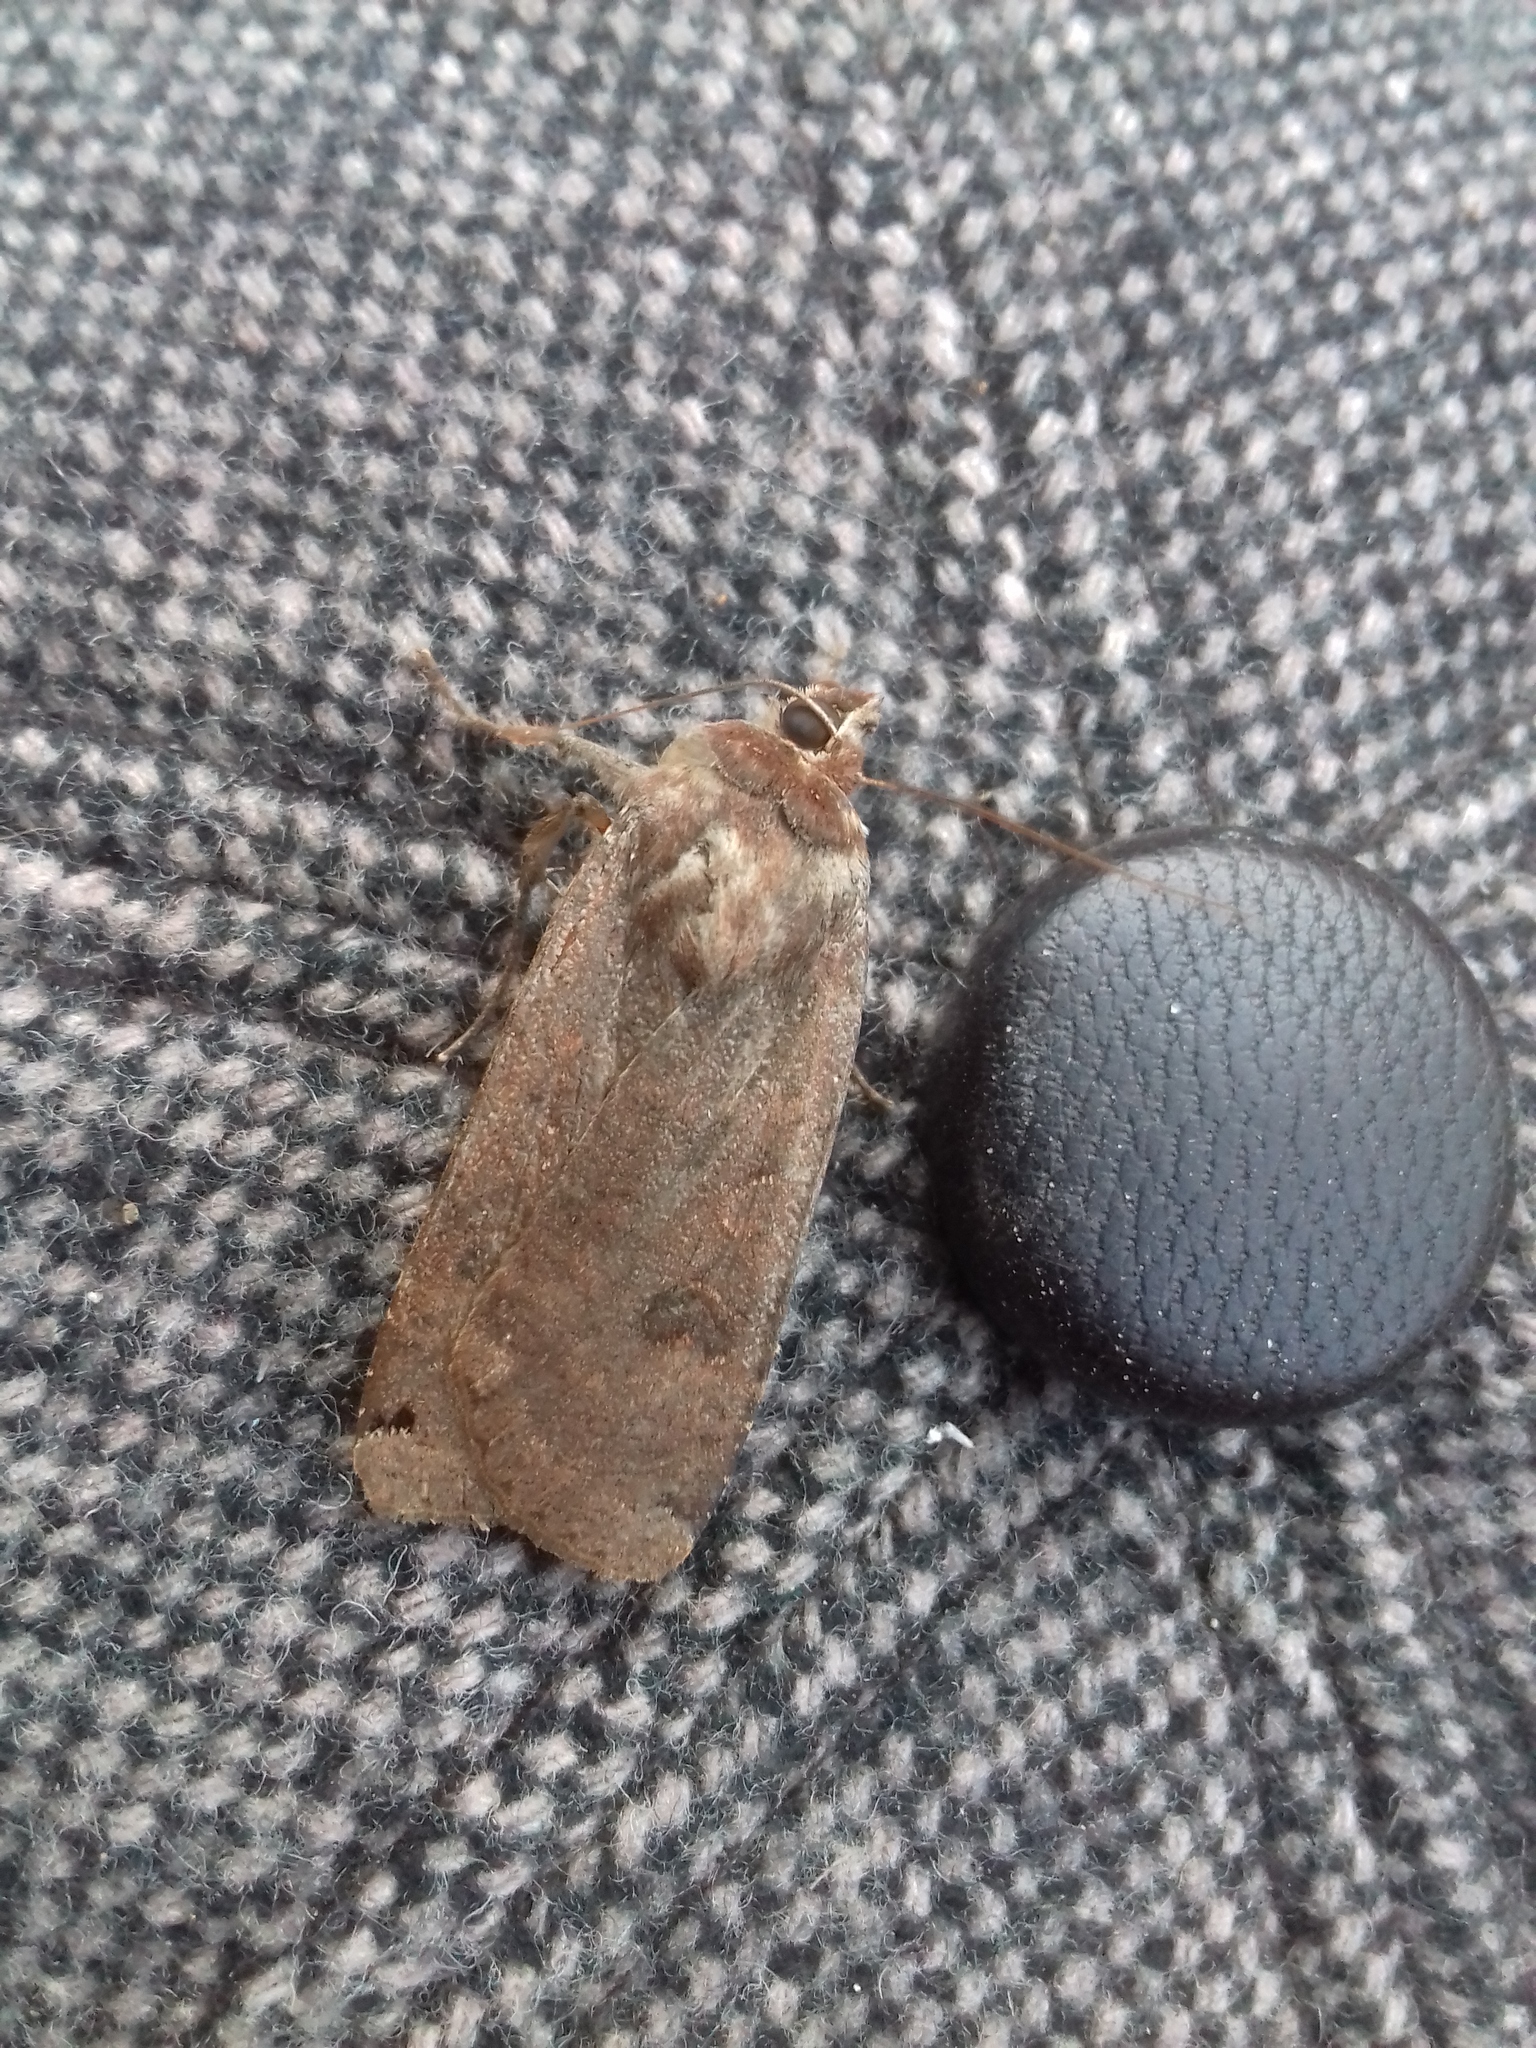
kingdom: Animalia
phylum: Arthropoda
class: Insecta
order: Lepidoptera
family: Noctuidae
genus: Noctua
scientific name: Noctua pronuba
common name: Large yellow underwing
